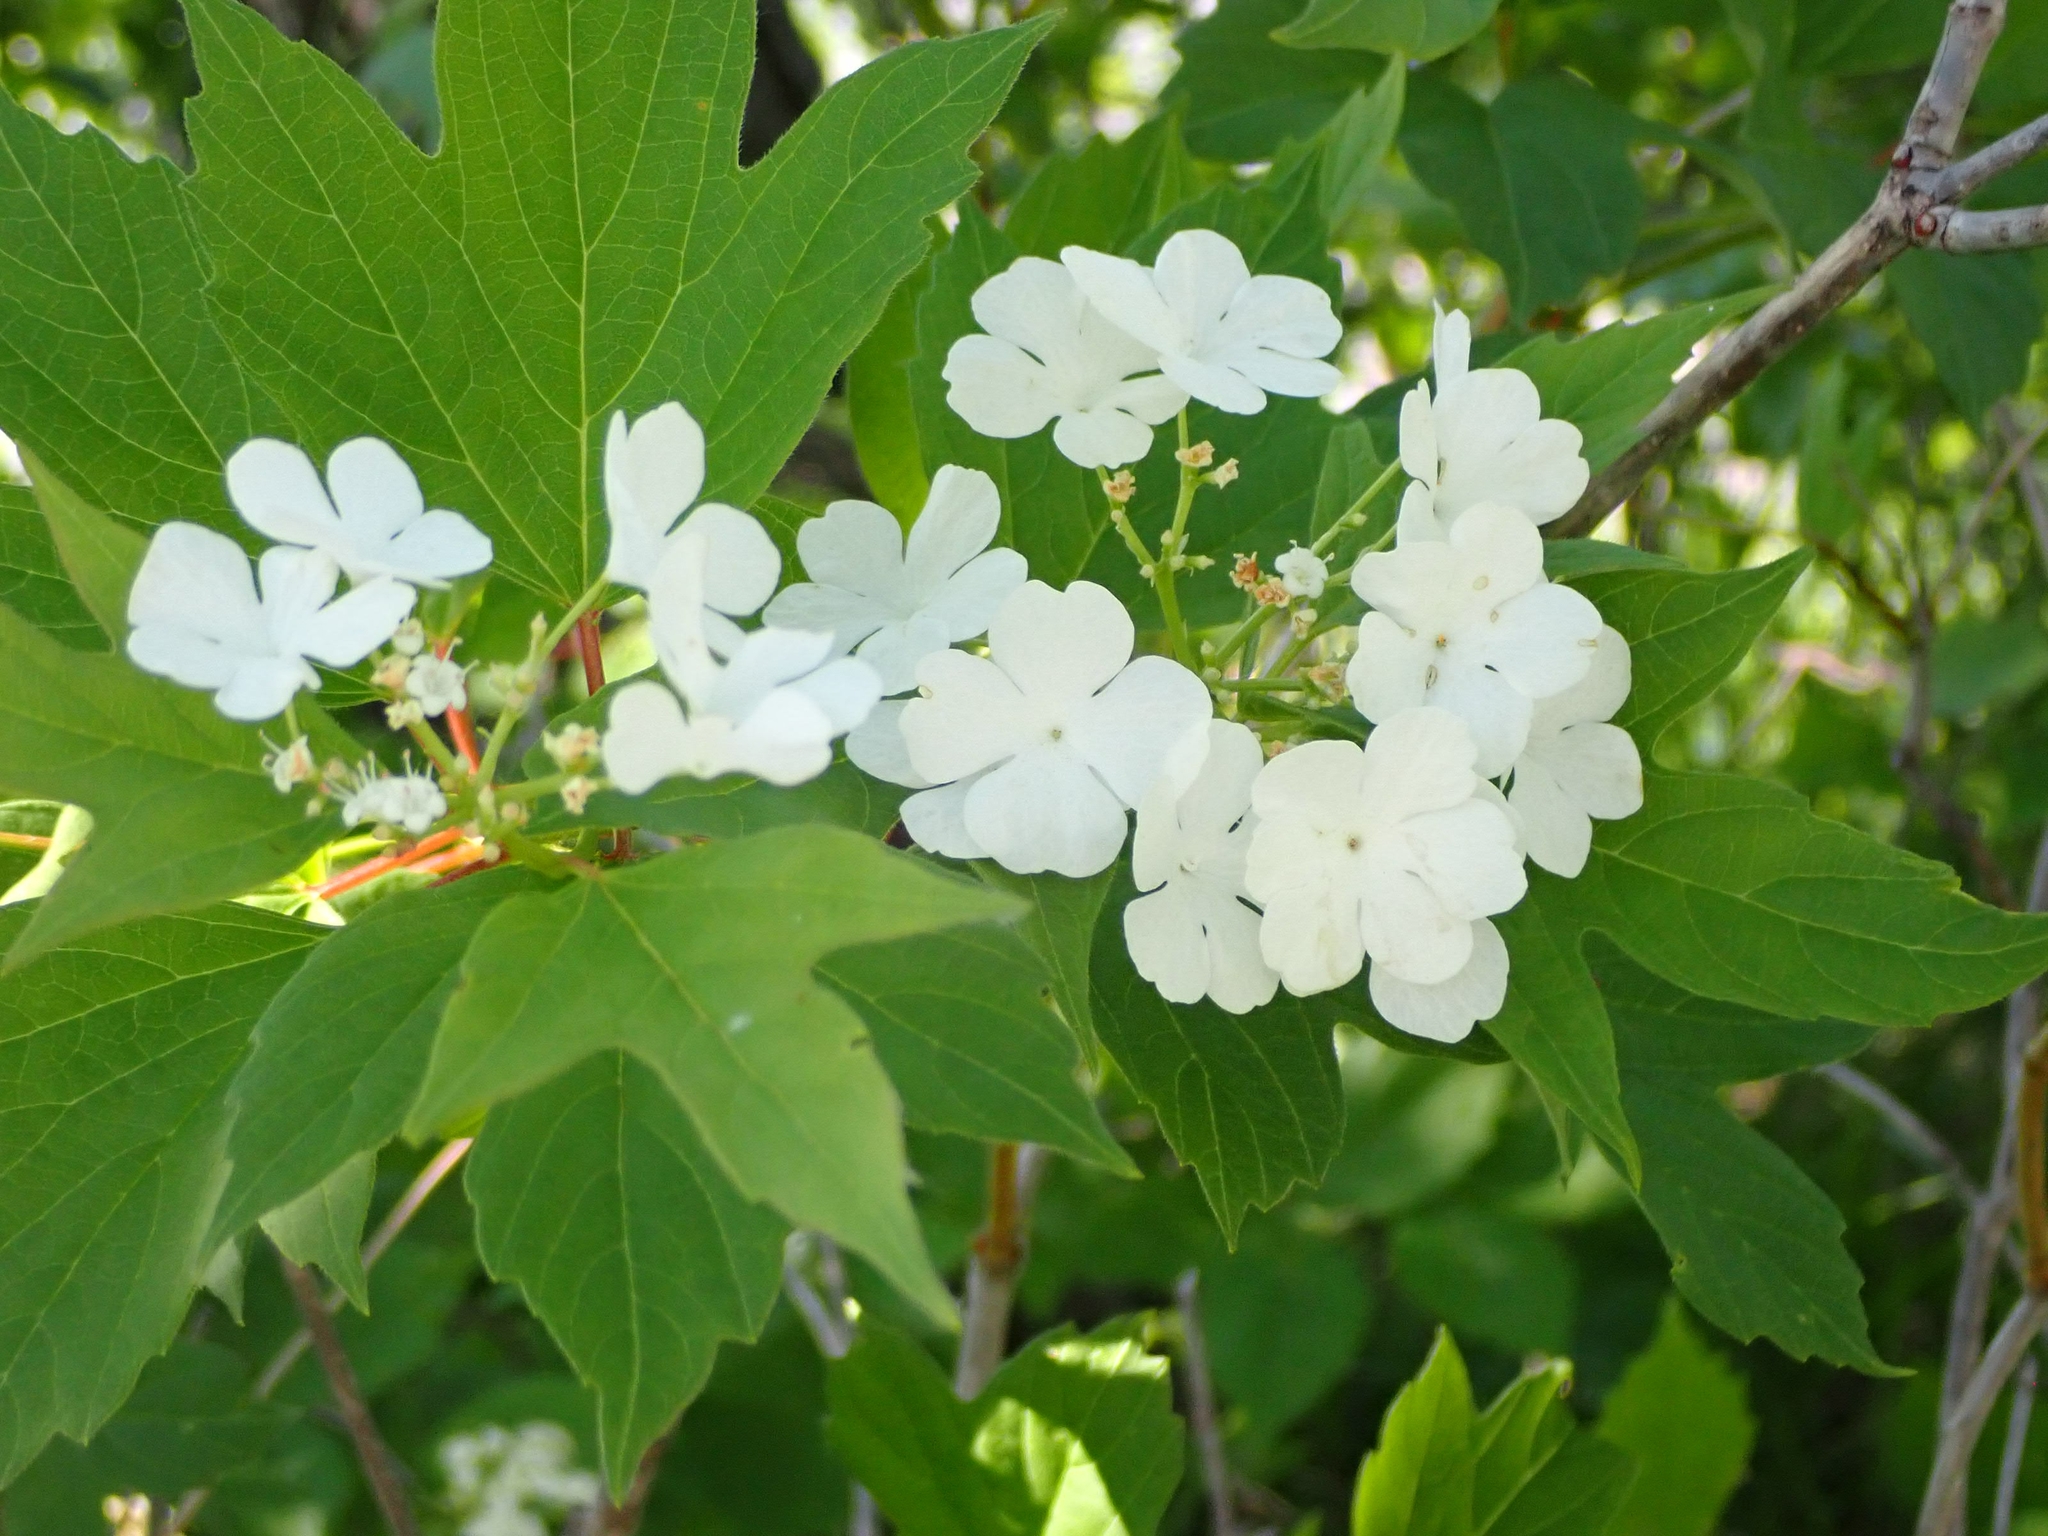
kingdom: Plantae
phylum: Tracheophyta
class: Magnoliopsida
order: Dipsacales
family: Viburnaceae
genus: Viburnum
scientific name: Viburnum trilobum
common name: American cranberrybush
